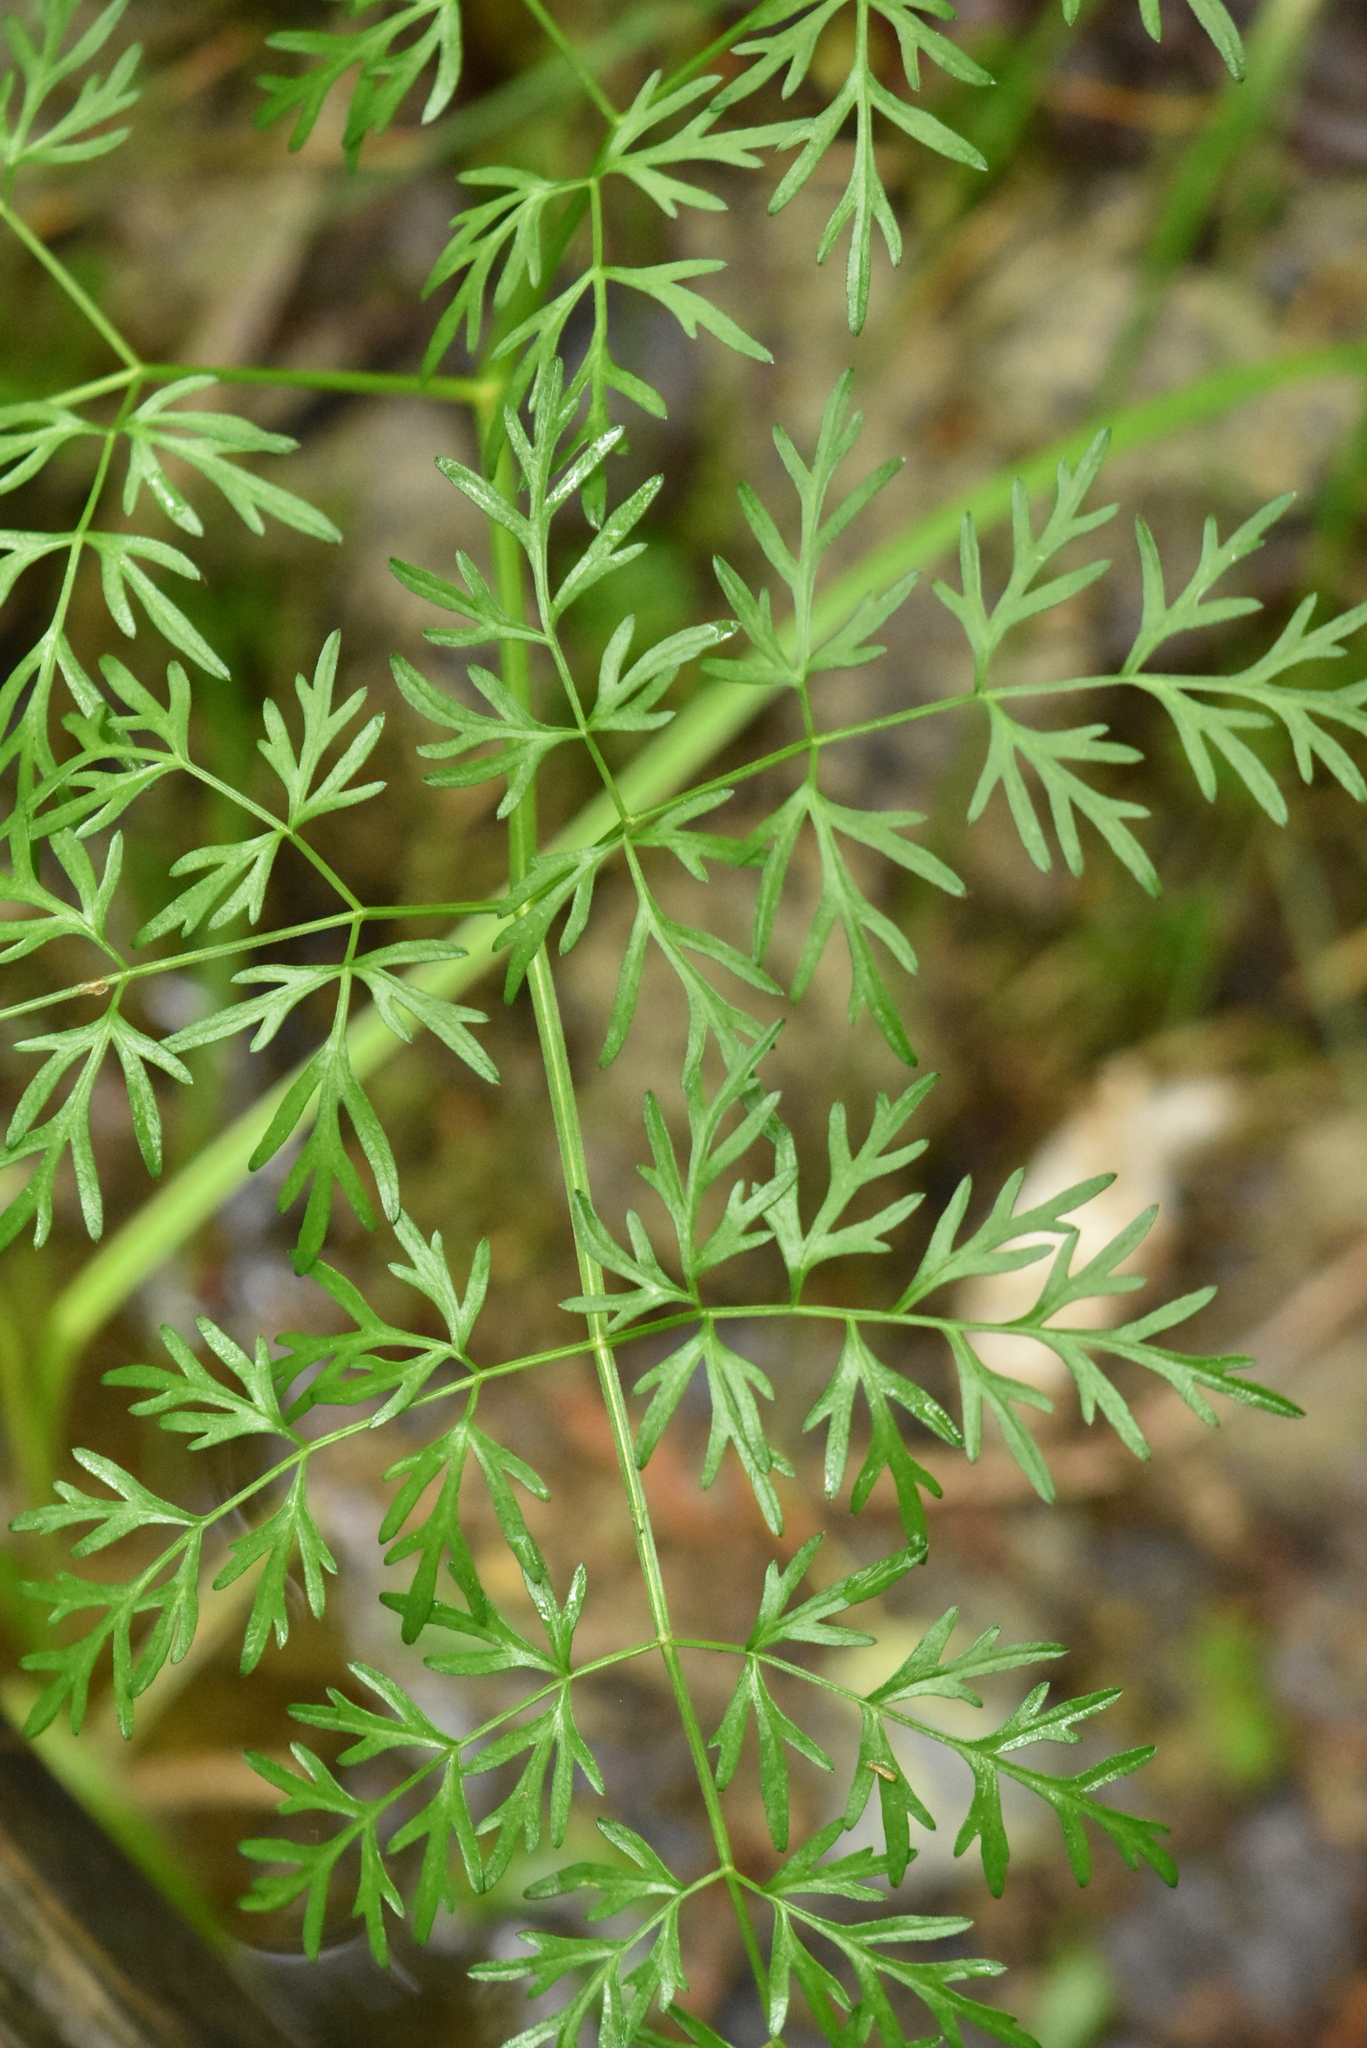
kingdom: Plantae
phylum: Tracheophyta
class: Magnoliopsida
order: Apiales
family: Apiaceae
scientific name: Apiaceae
